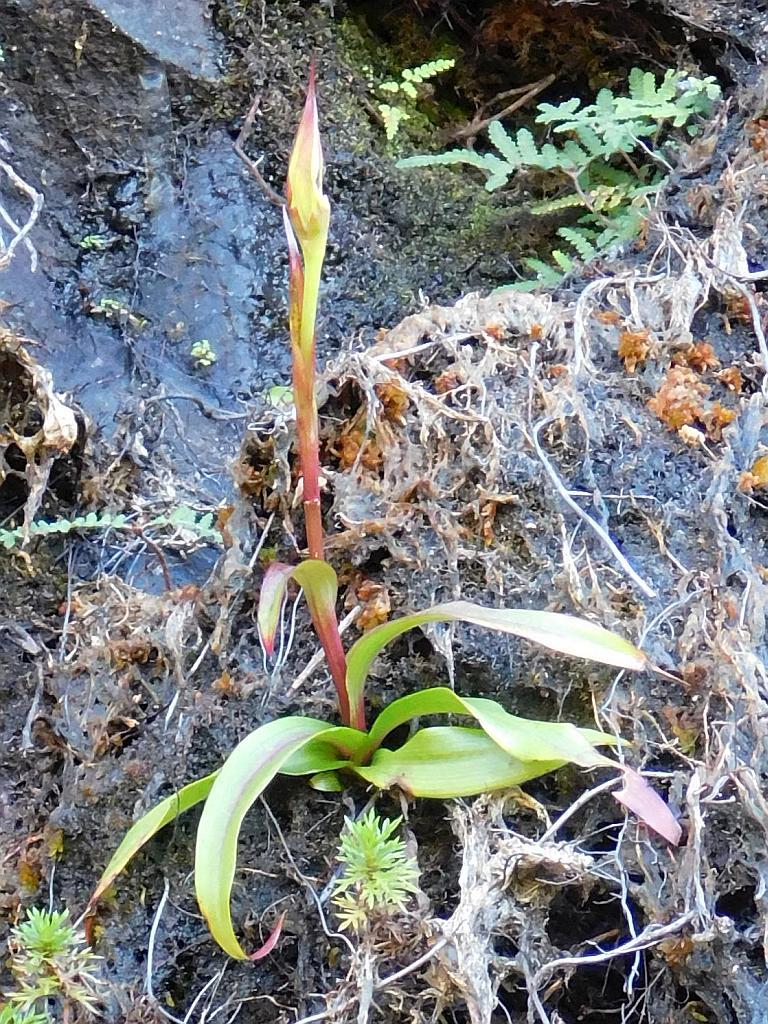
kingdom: Plantae
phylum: Tracheophyta
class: Liliopsida
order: Asparagales
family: Orchidaceae
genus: Disa
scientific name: Disa uniflora
